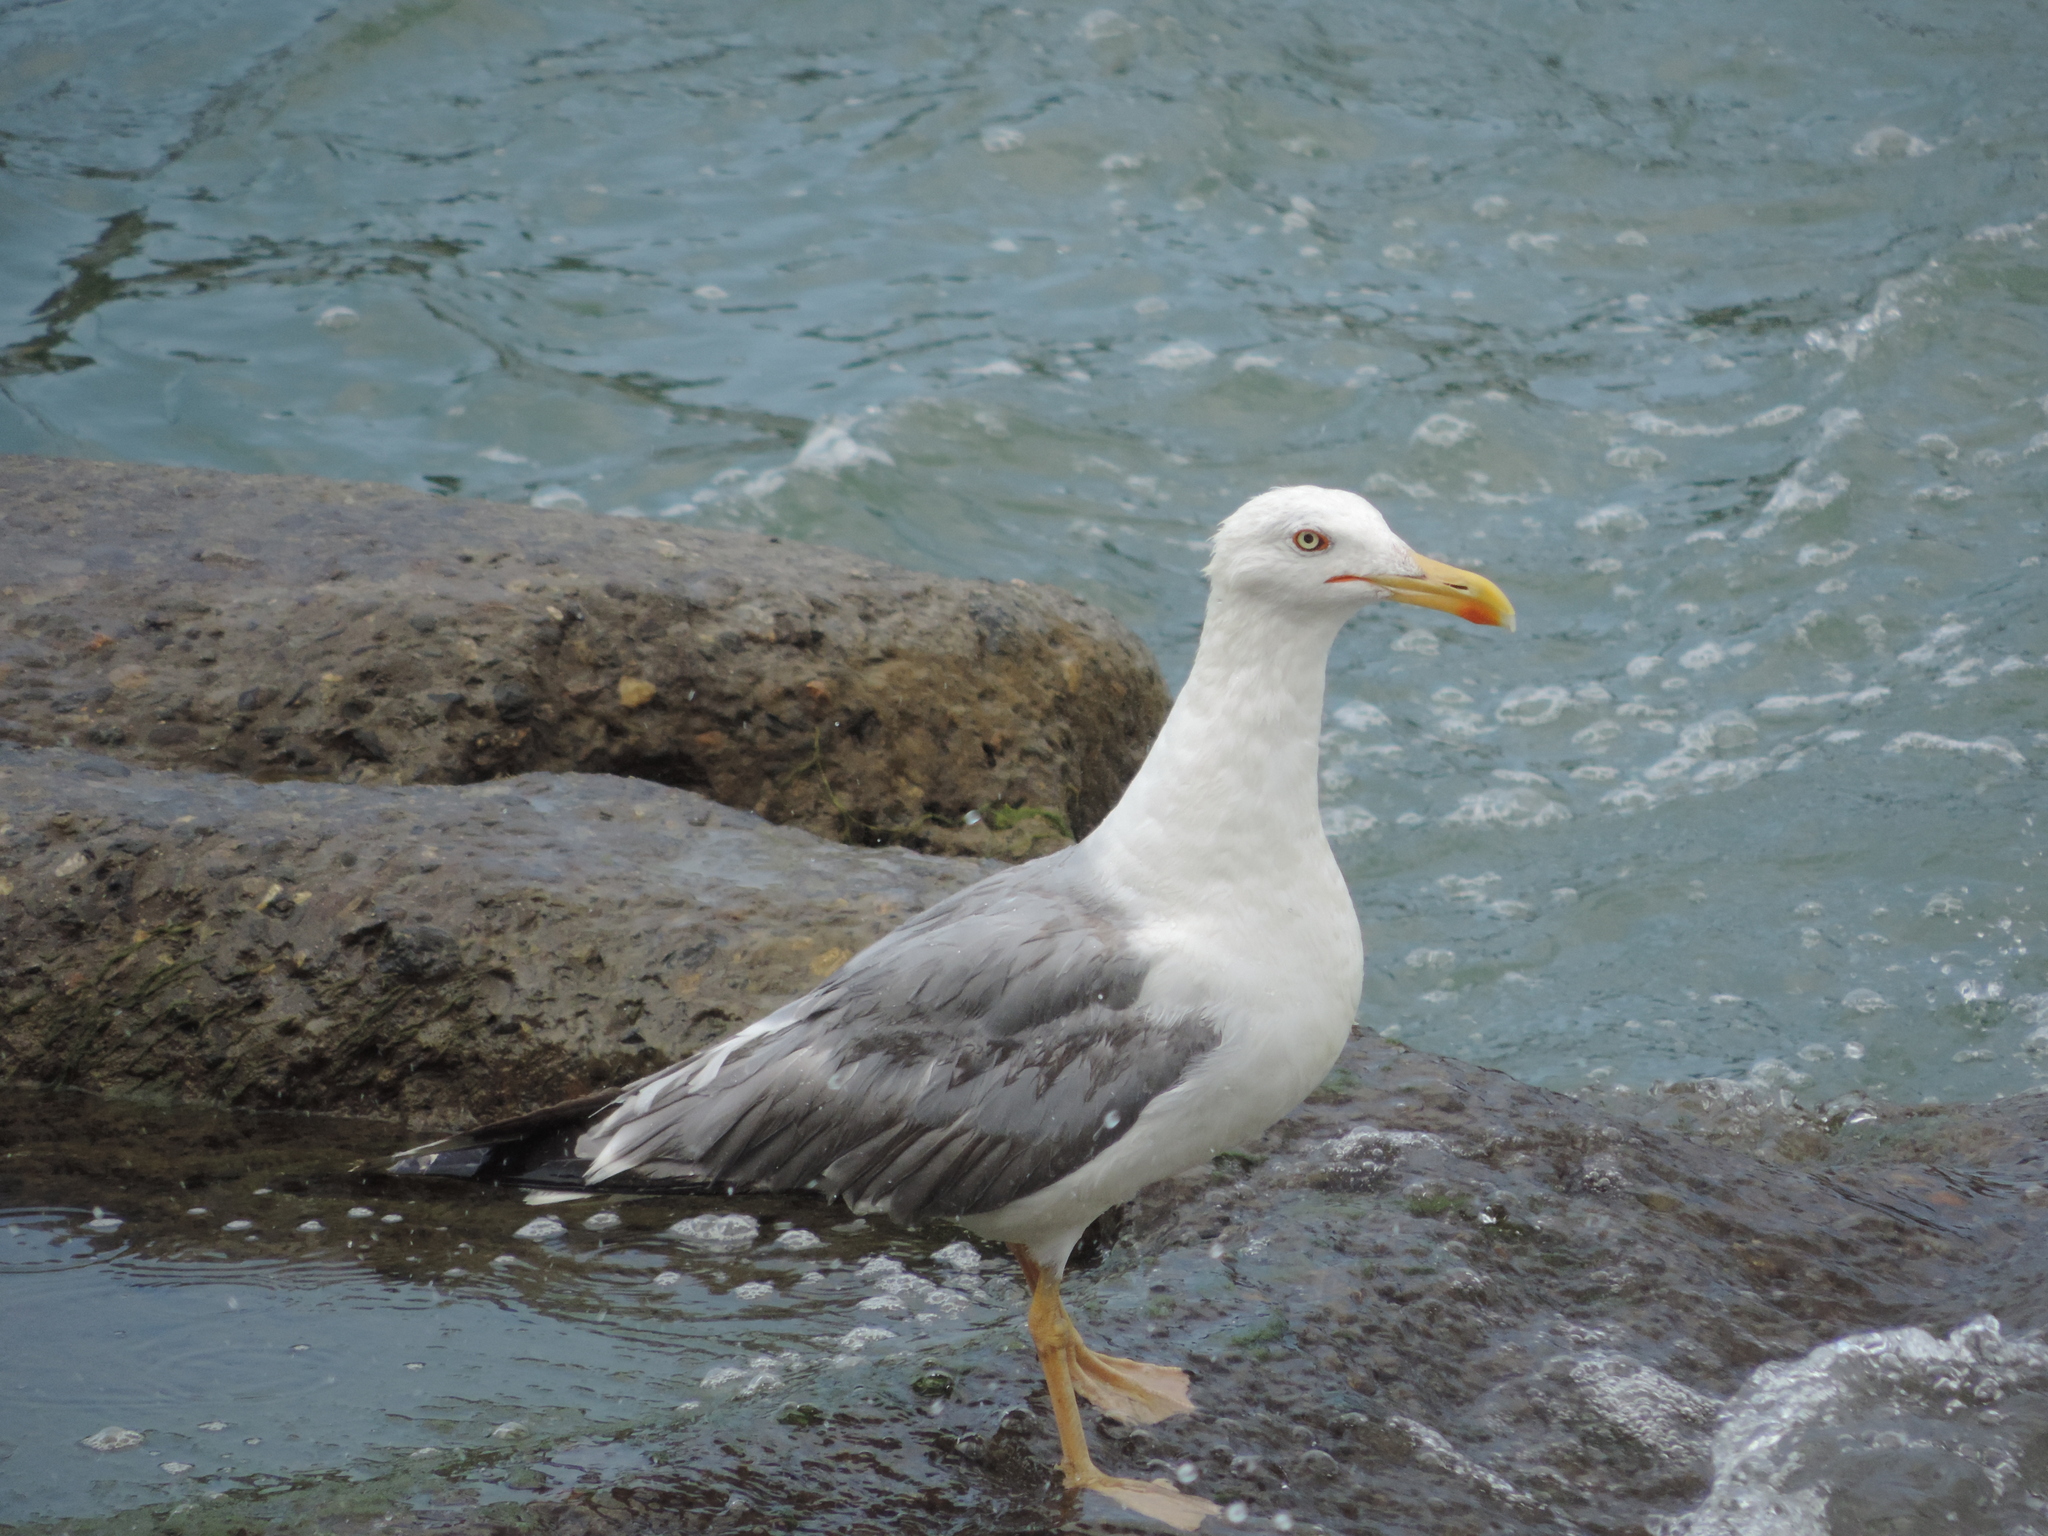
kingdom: Animalia
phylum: Chordata
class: Aves
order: Charadriiformes
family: Laridae
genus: Larus
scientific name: Larus michahellis
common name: Yellow-legged gull
